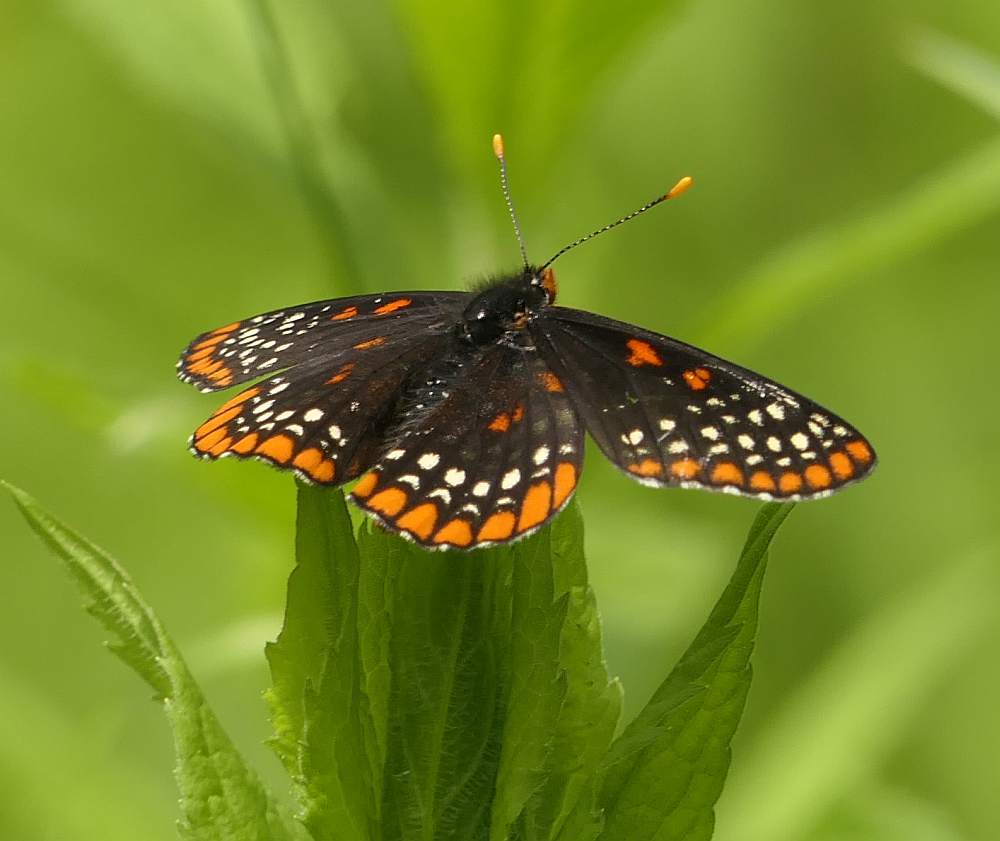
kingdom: Animalia
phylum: Arthropoda
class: Insecta
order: Lepidoptera
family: Nymphalidae
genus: Euphydryas
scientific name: Euphydryas phaeton
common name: Baltimore checkerspot
